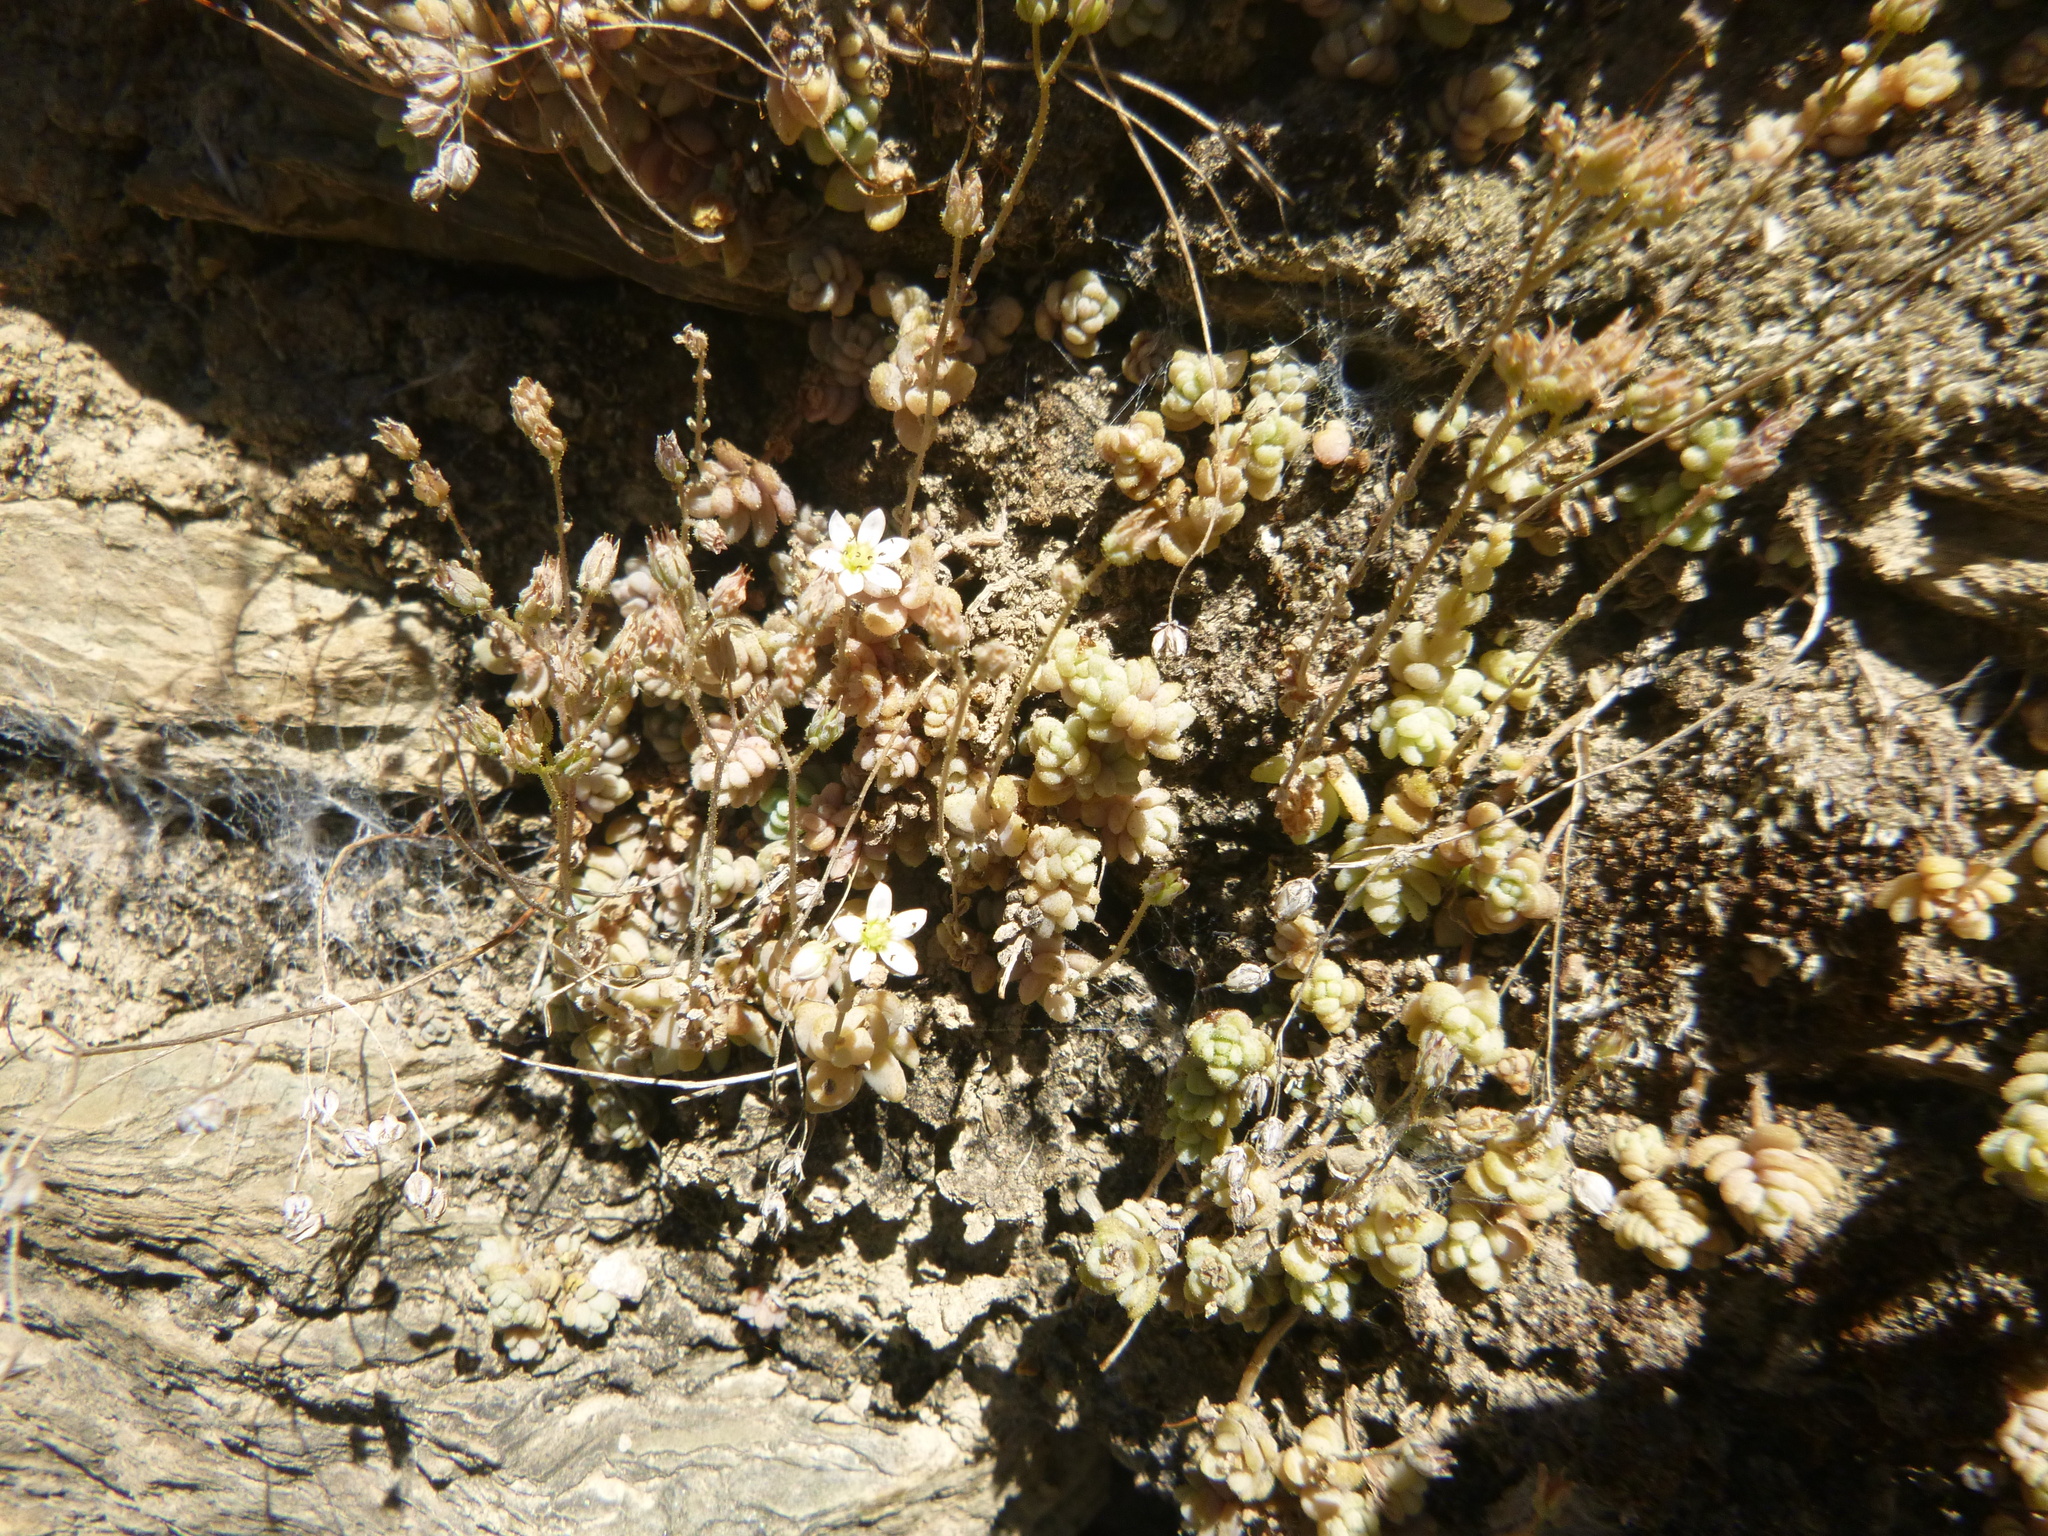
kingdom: Plantae
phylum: Tracheophyta
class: Magnoliopsida
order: Saxifragales
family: Crassulaceae
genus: Sedum
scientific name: Sedum dasyphyllum
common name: Thick-leaf stonecrop
